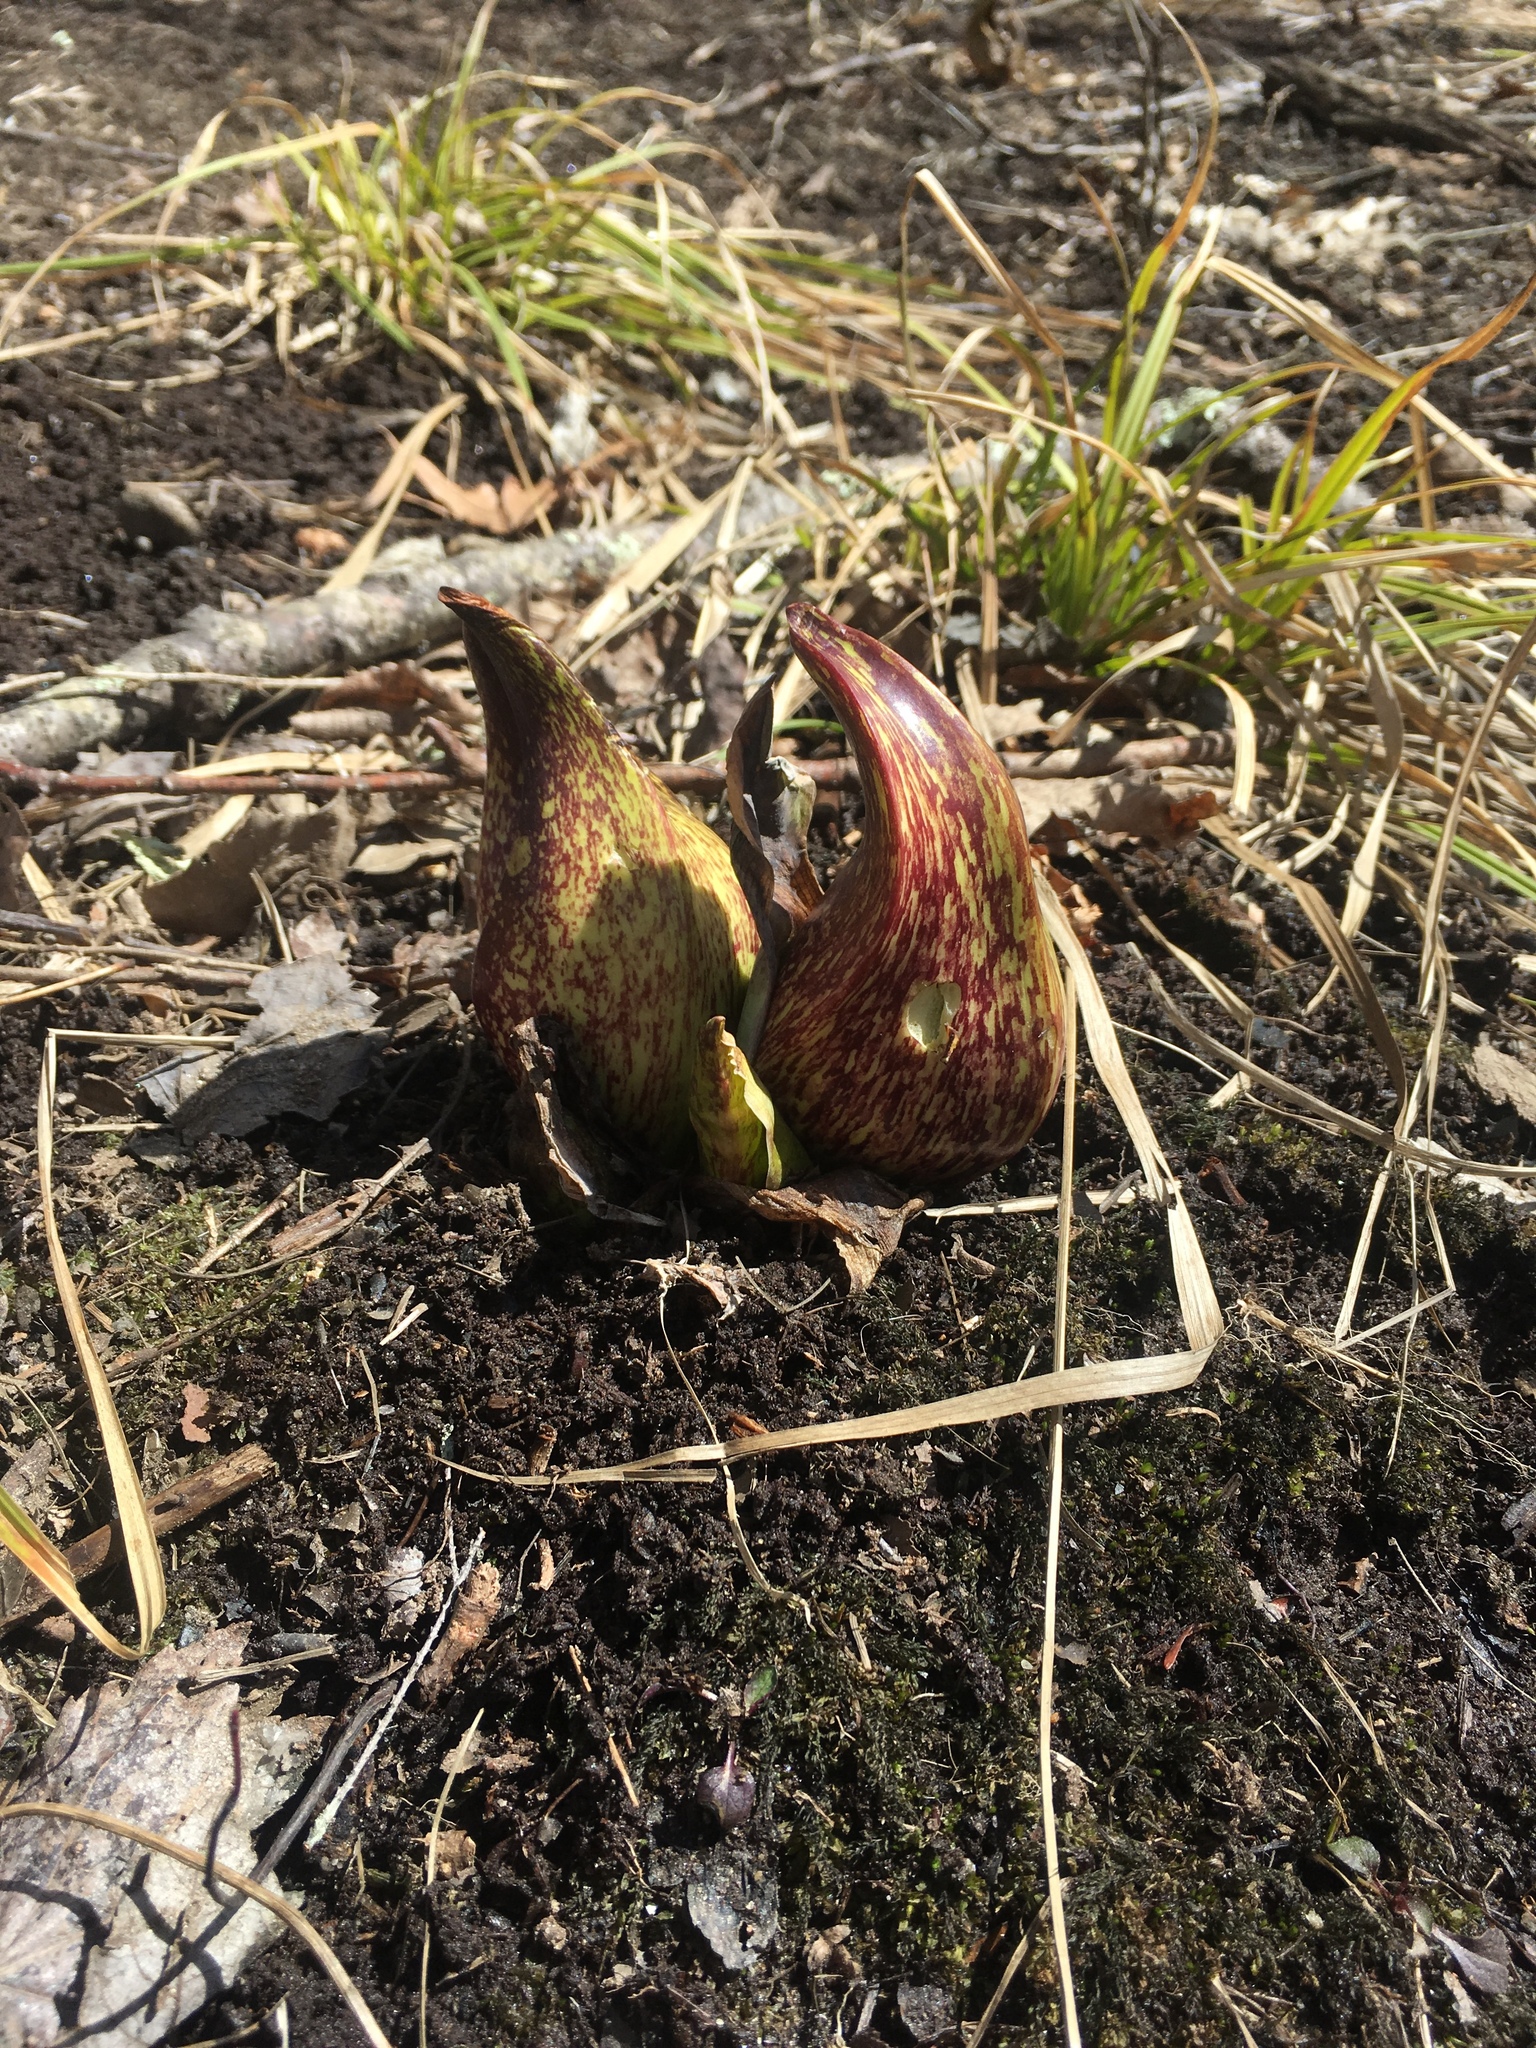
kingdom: Plantae
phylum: Tracheophyta
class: Liliopsida
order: Alismatales
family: Araceae
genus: Symplocarpus
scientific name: Symplocarpus foetidus
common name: Eastern skunk cabbage
